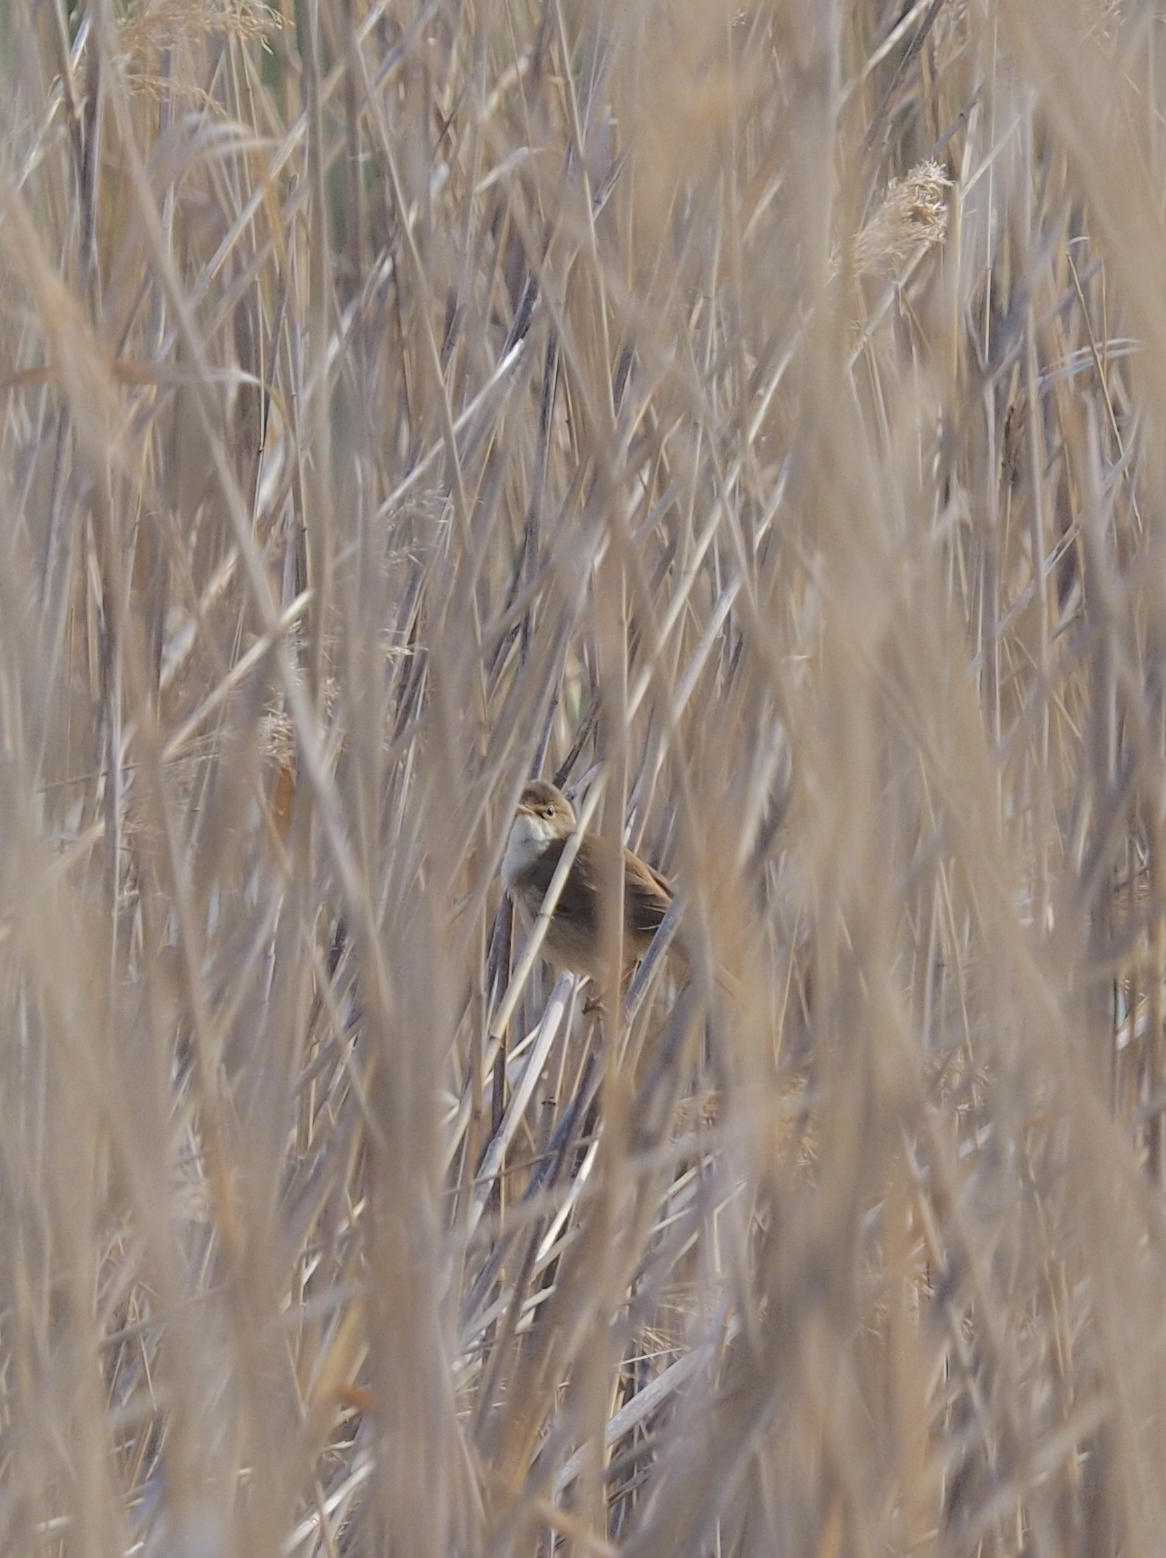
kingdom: Animalia
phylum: Chordata
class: Aves
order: Passeriformes
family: Acrocephalidae
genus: Acrocephalus
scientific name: Acrocephalus scirpaceus
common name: Eurasian reed warbler
